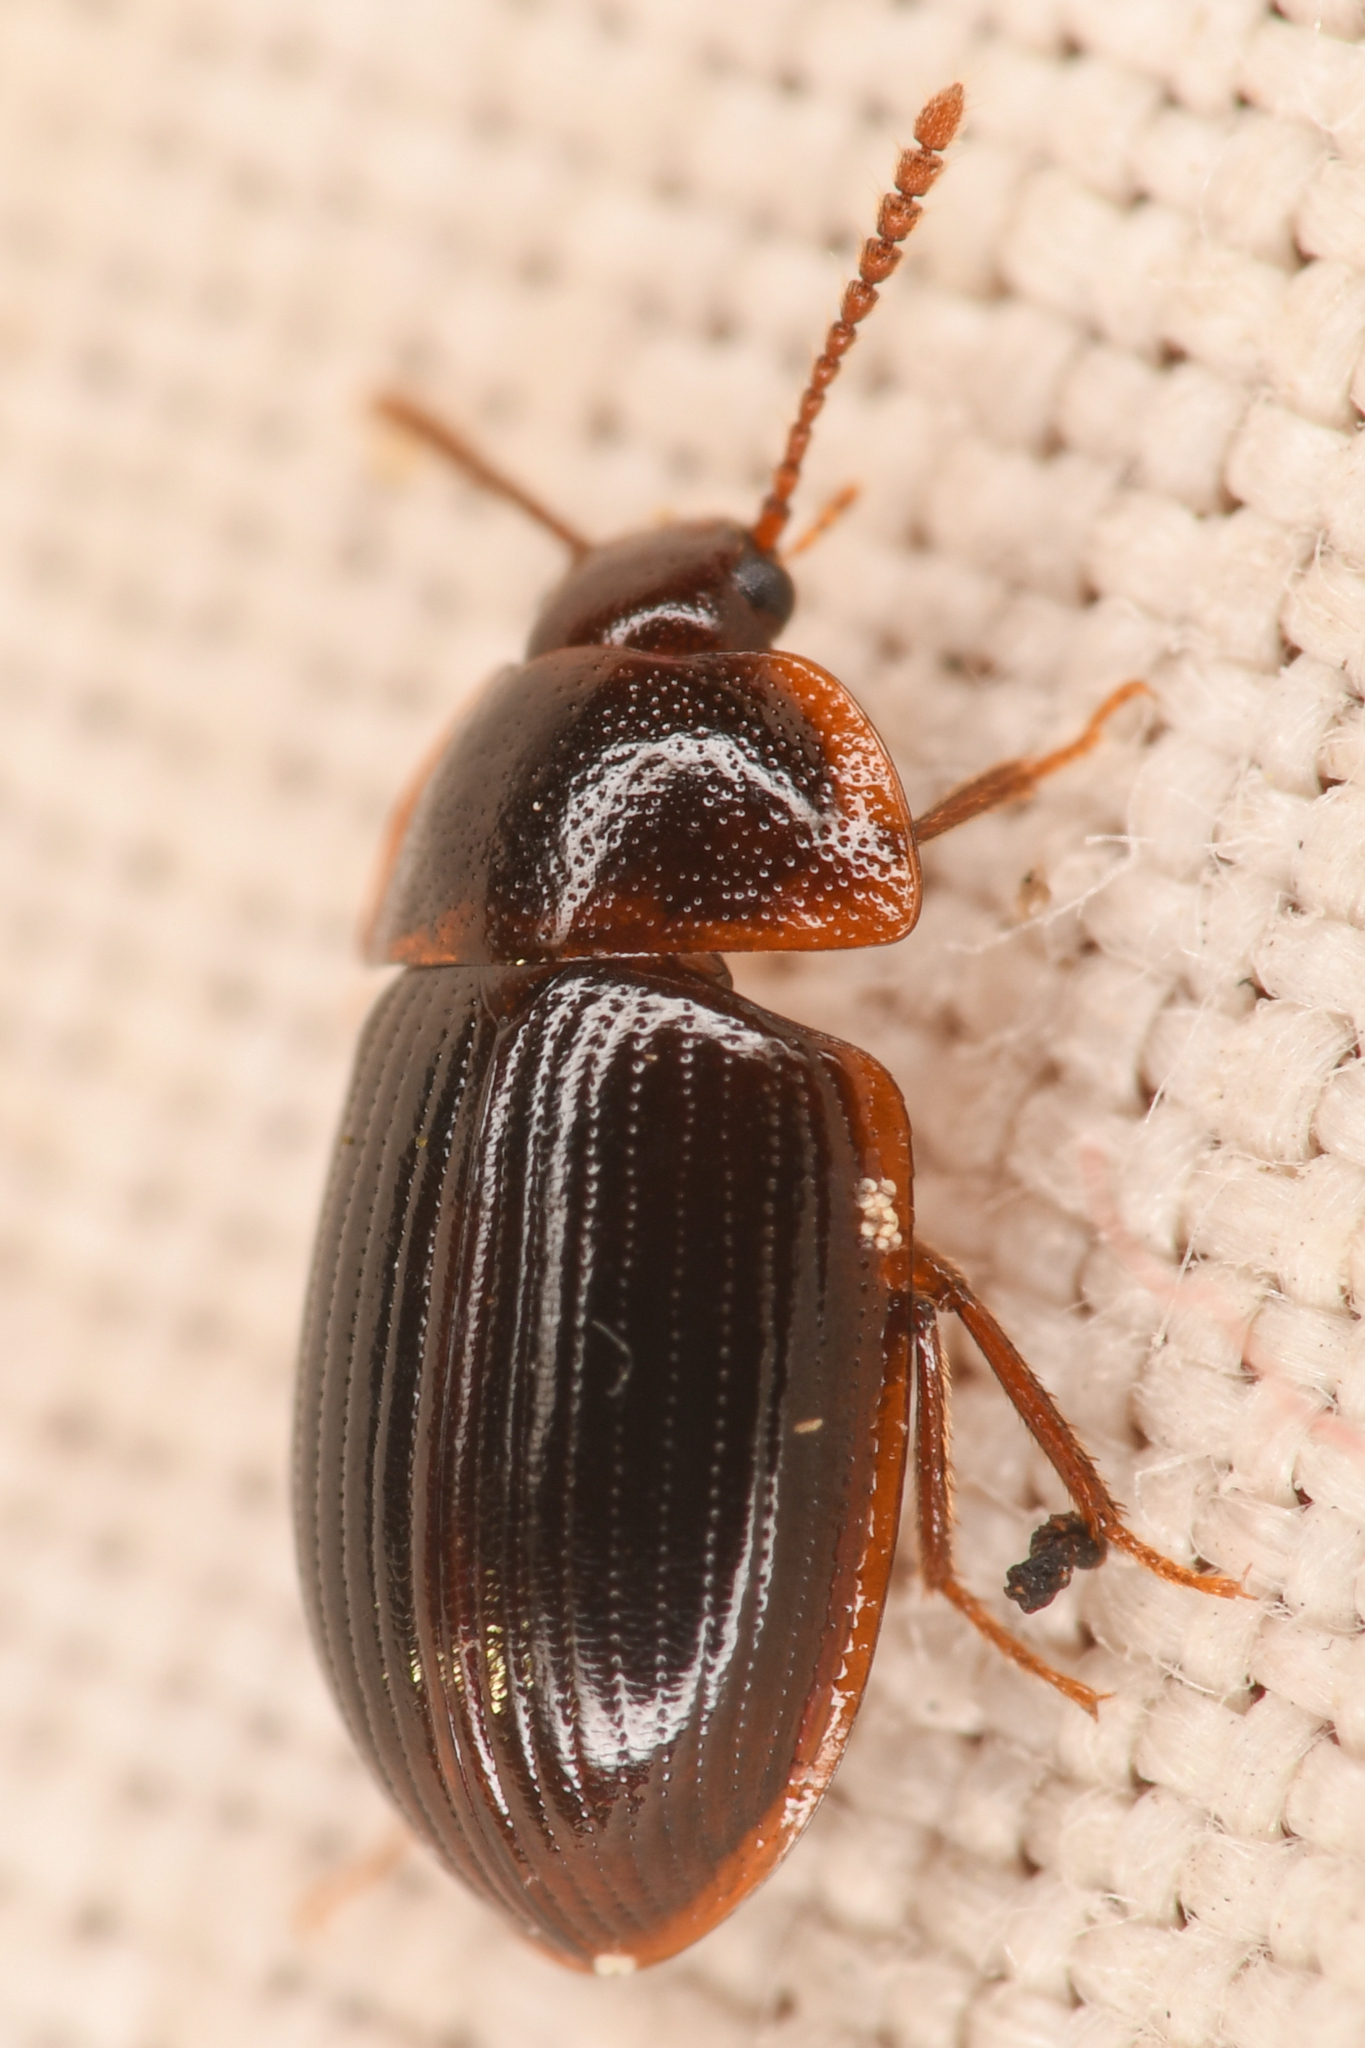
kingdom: Animalia
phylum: Arthropoda
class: Insecta
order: Coleoptera
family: Agyrtidae
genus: Ipelates
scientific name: Ipelates latus
